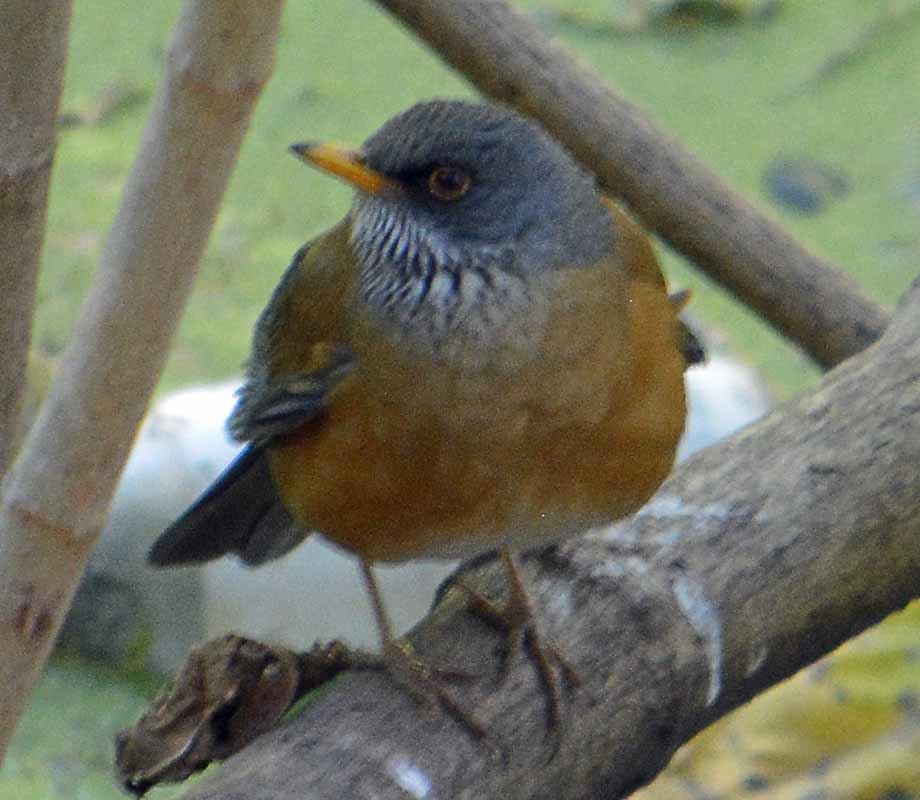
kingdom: Animalia
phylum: Chordata
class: Aves
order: Passeriformes
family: Turdidae
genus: Turdus
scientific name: Turdus rufopalliatus
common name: Rufous-backed robin
